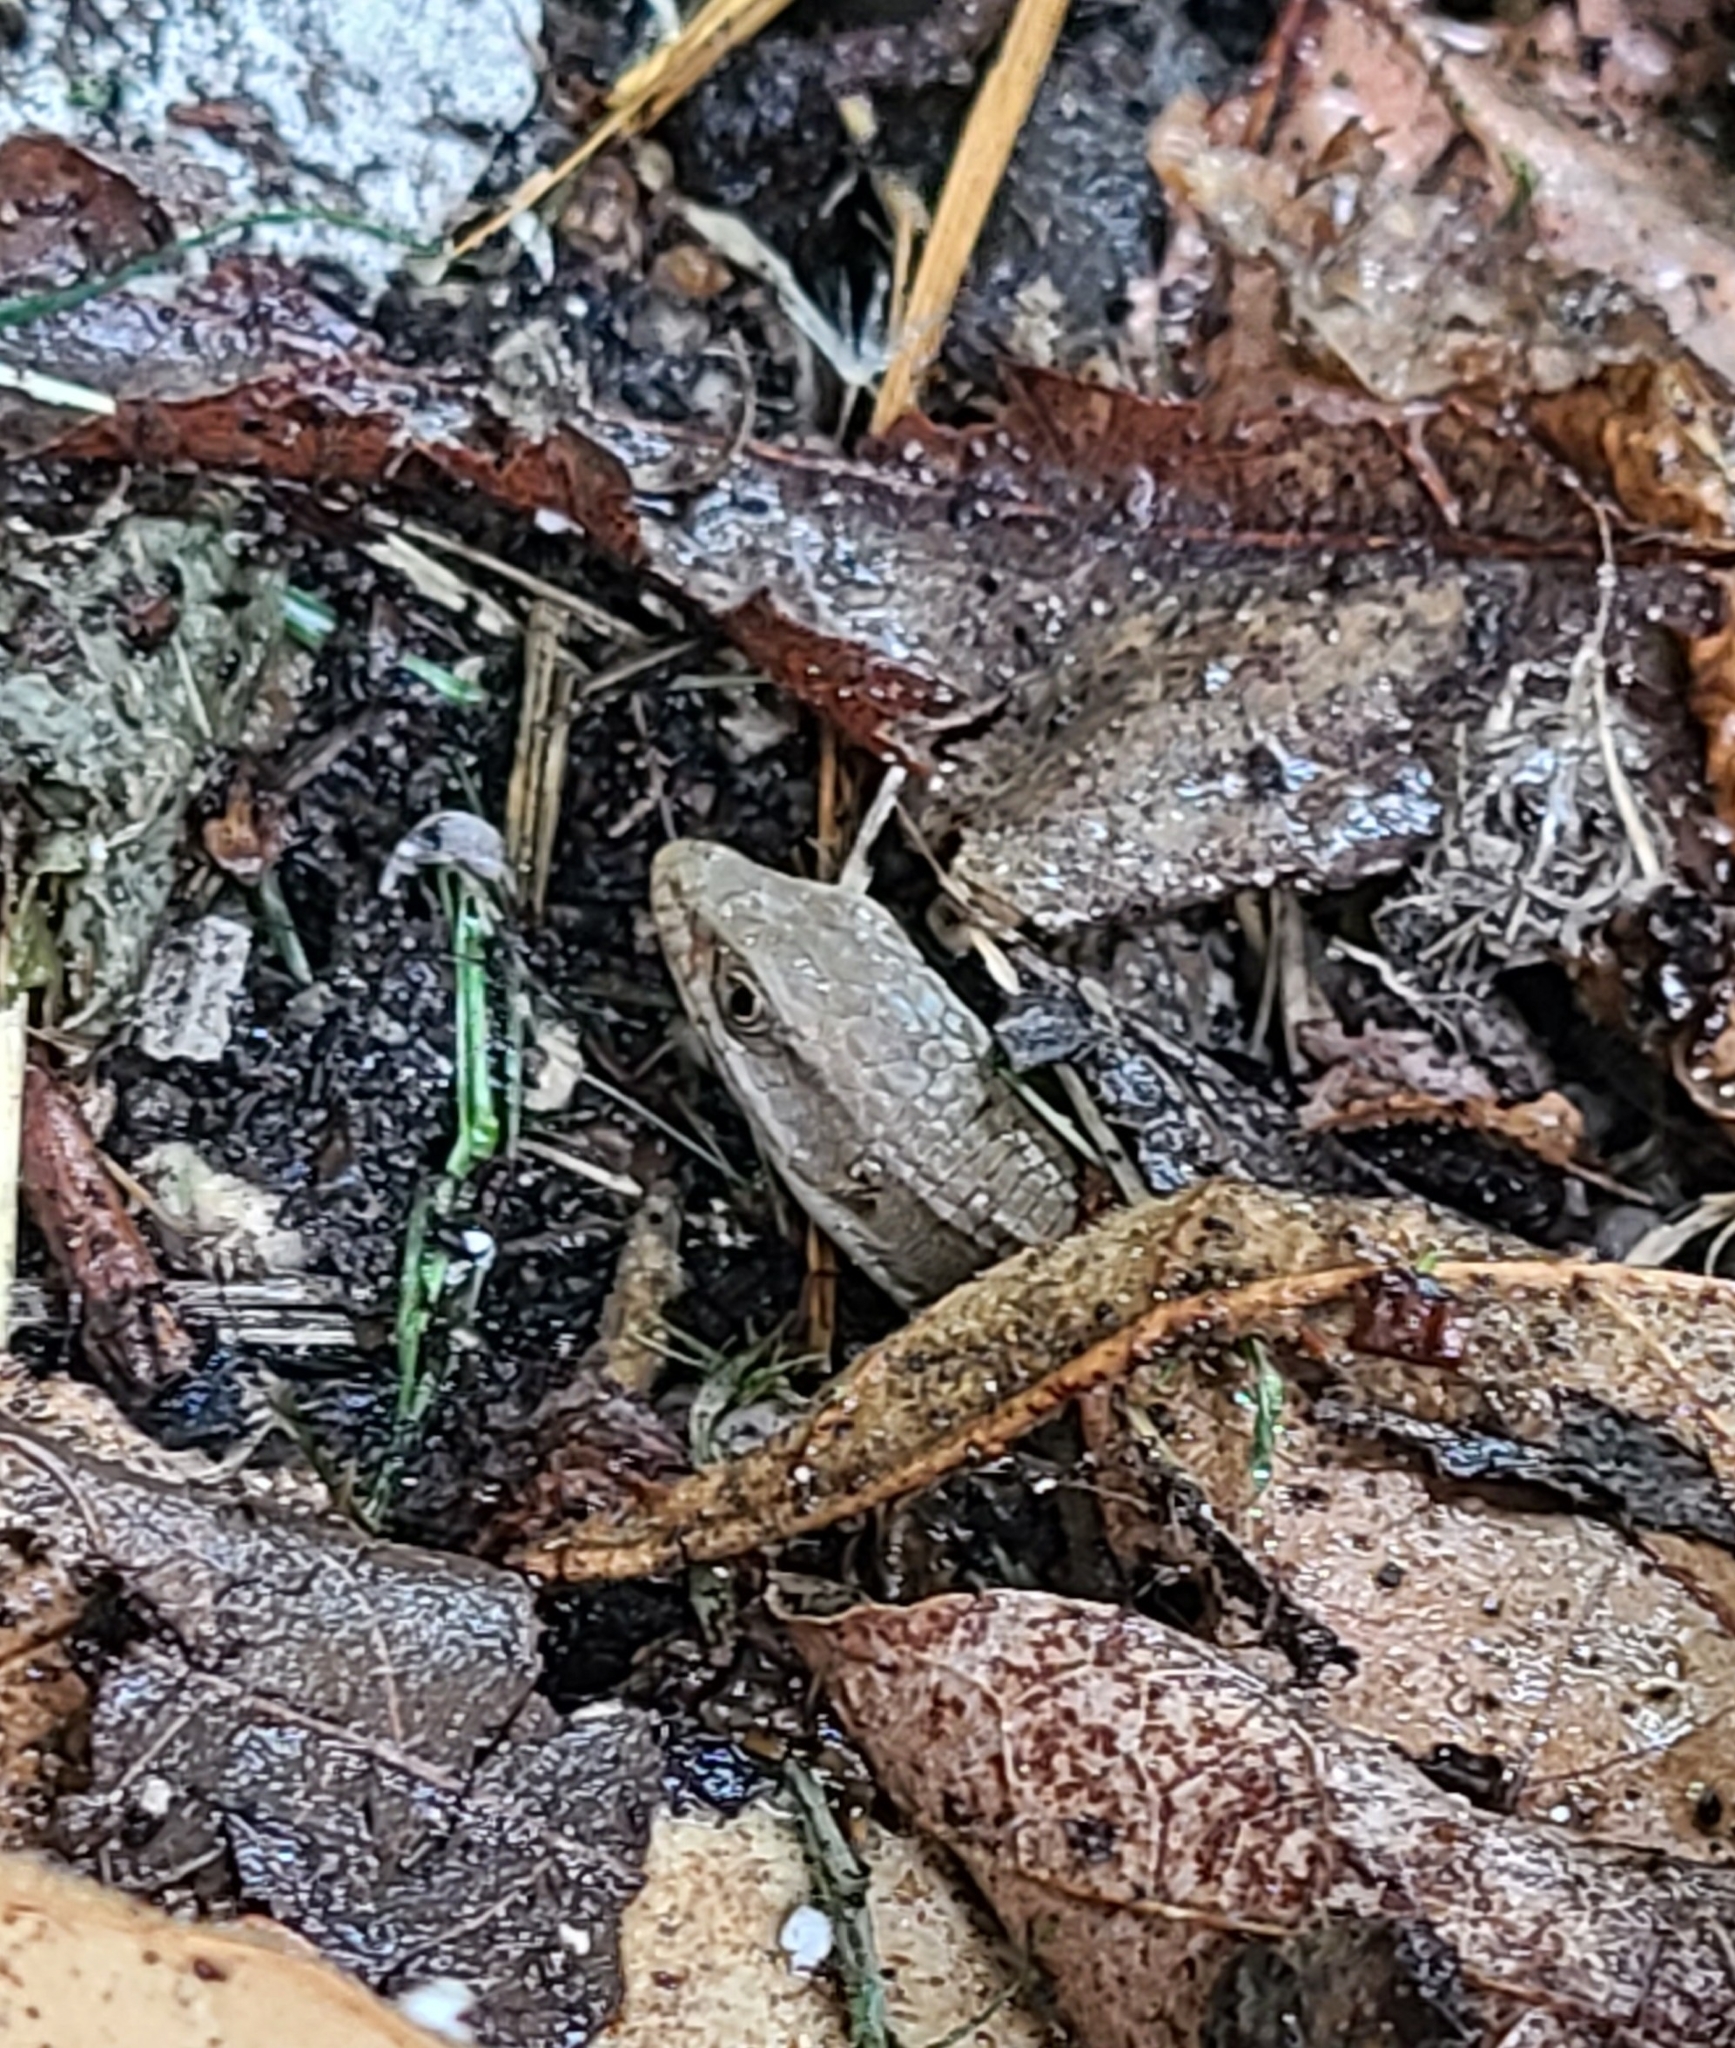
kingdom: Animalia
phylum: Chordata
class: Squamata
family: Anguidae
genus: Elgaria
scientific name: Elgaria multicarinata
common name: Southern alligator lizard
